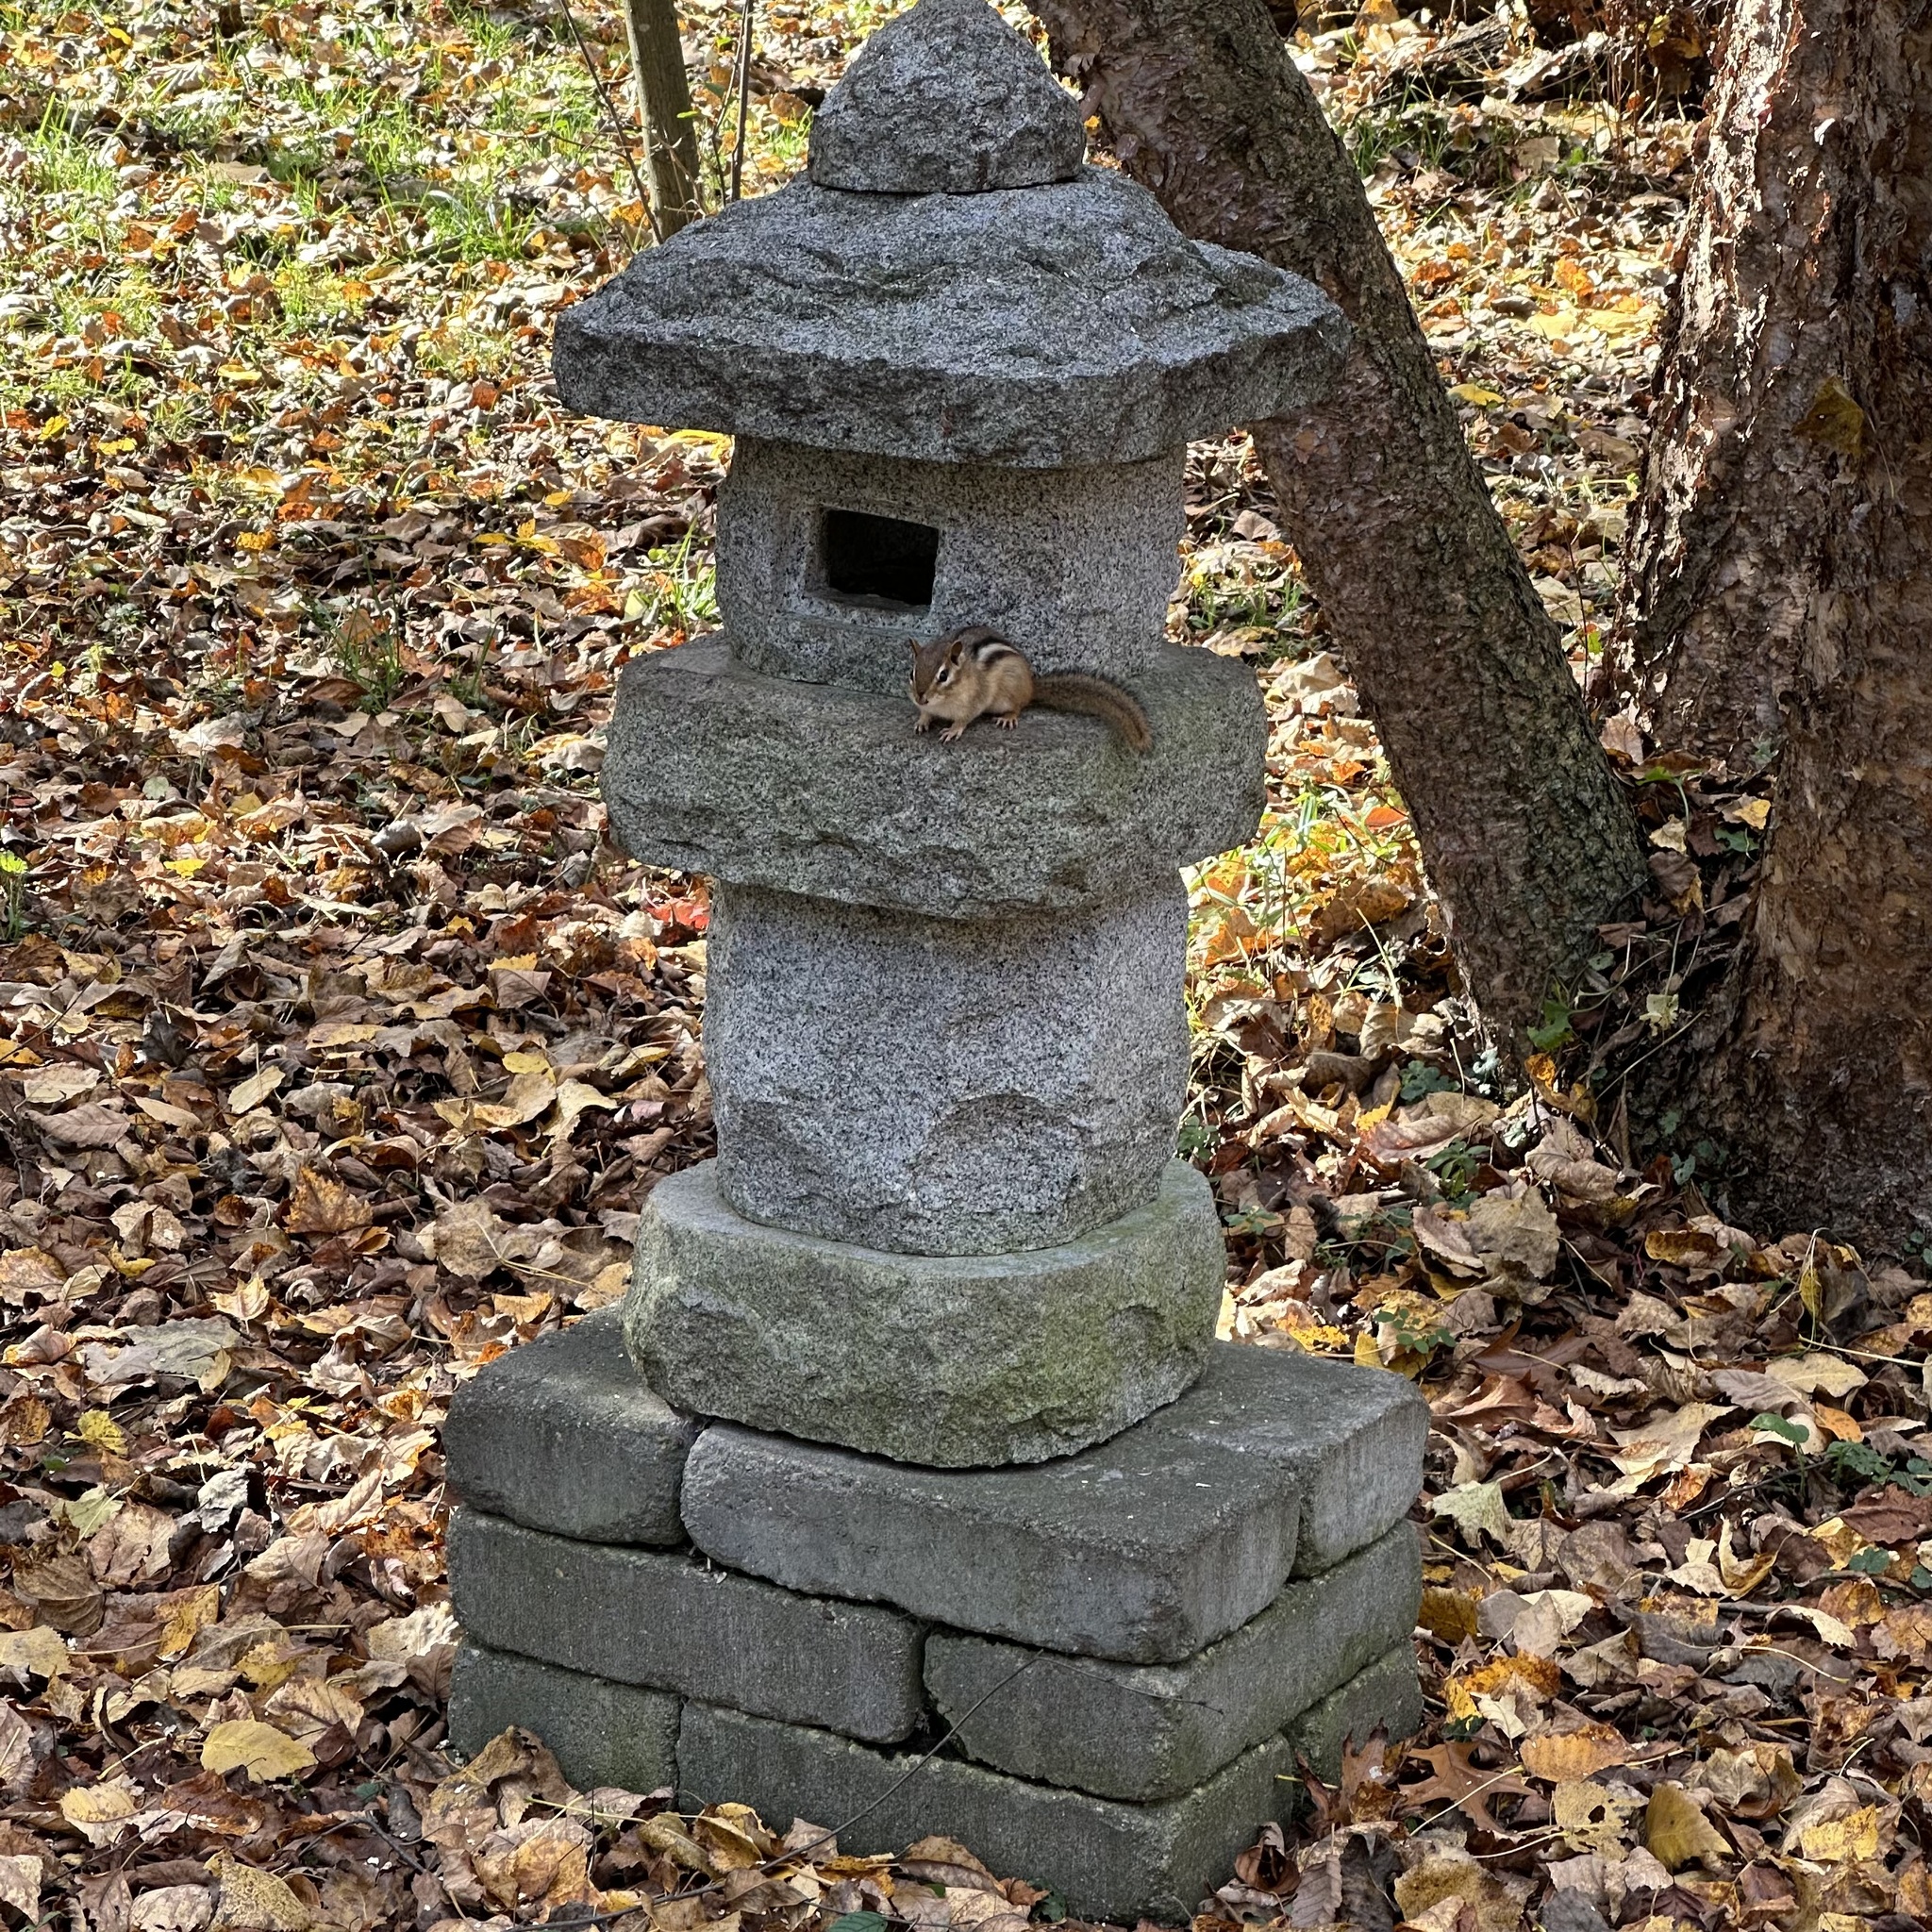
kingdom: Animalia
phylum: Chordata
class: Mammalia
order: Rodentia
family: Sciuridae
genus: Tamias
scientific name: Tamias striatus
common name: Eastern chipmunk
